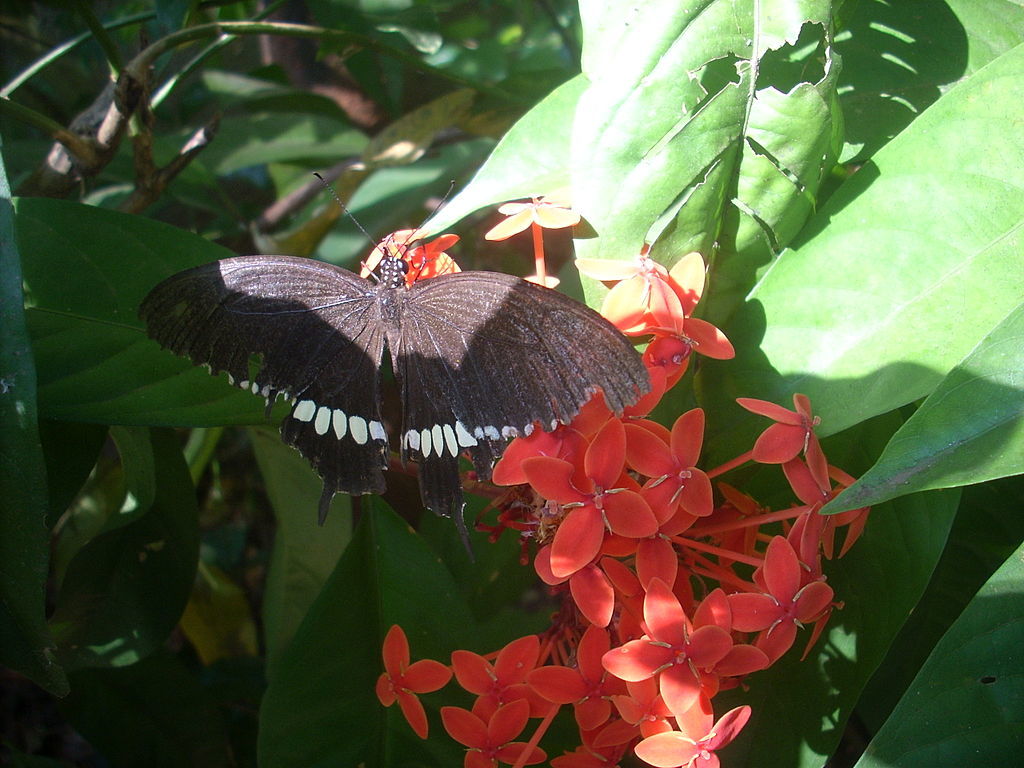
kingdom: Animalia
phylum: Arthropoda
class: Insecta
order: Lepidoptera
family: Papilionidae
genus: Papilio
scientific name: Papilio polytes
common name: Common mormon
